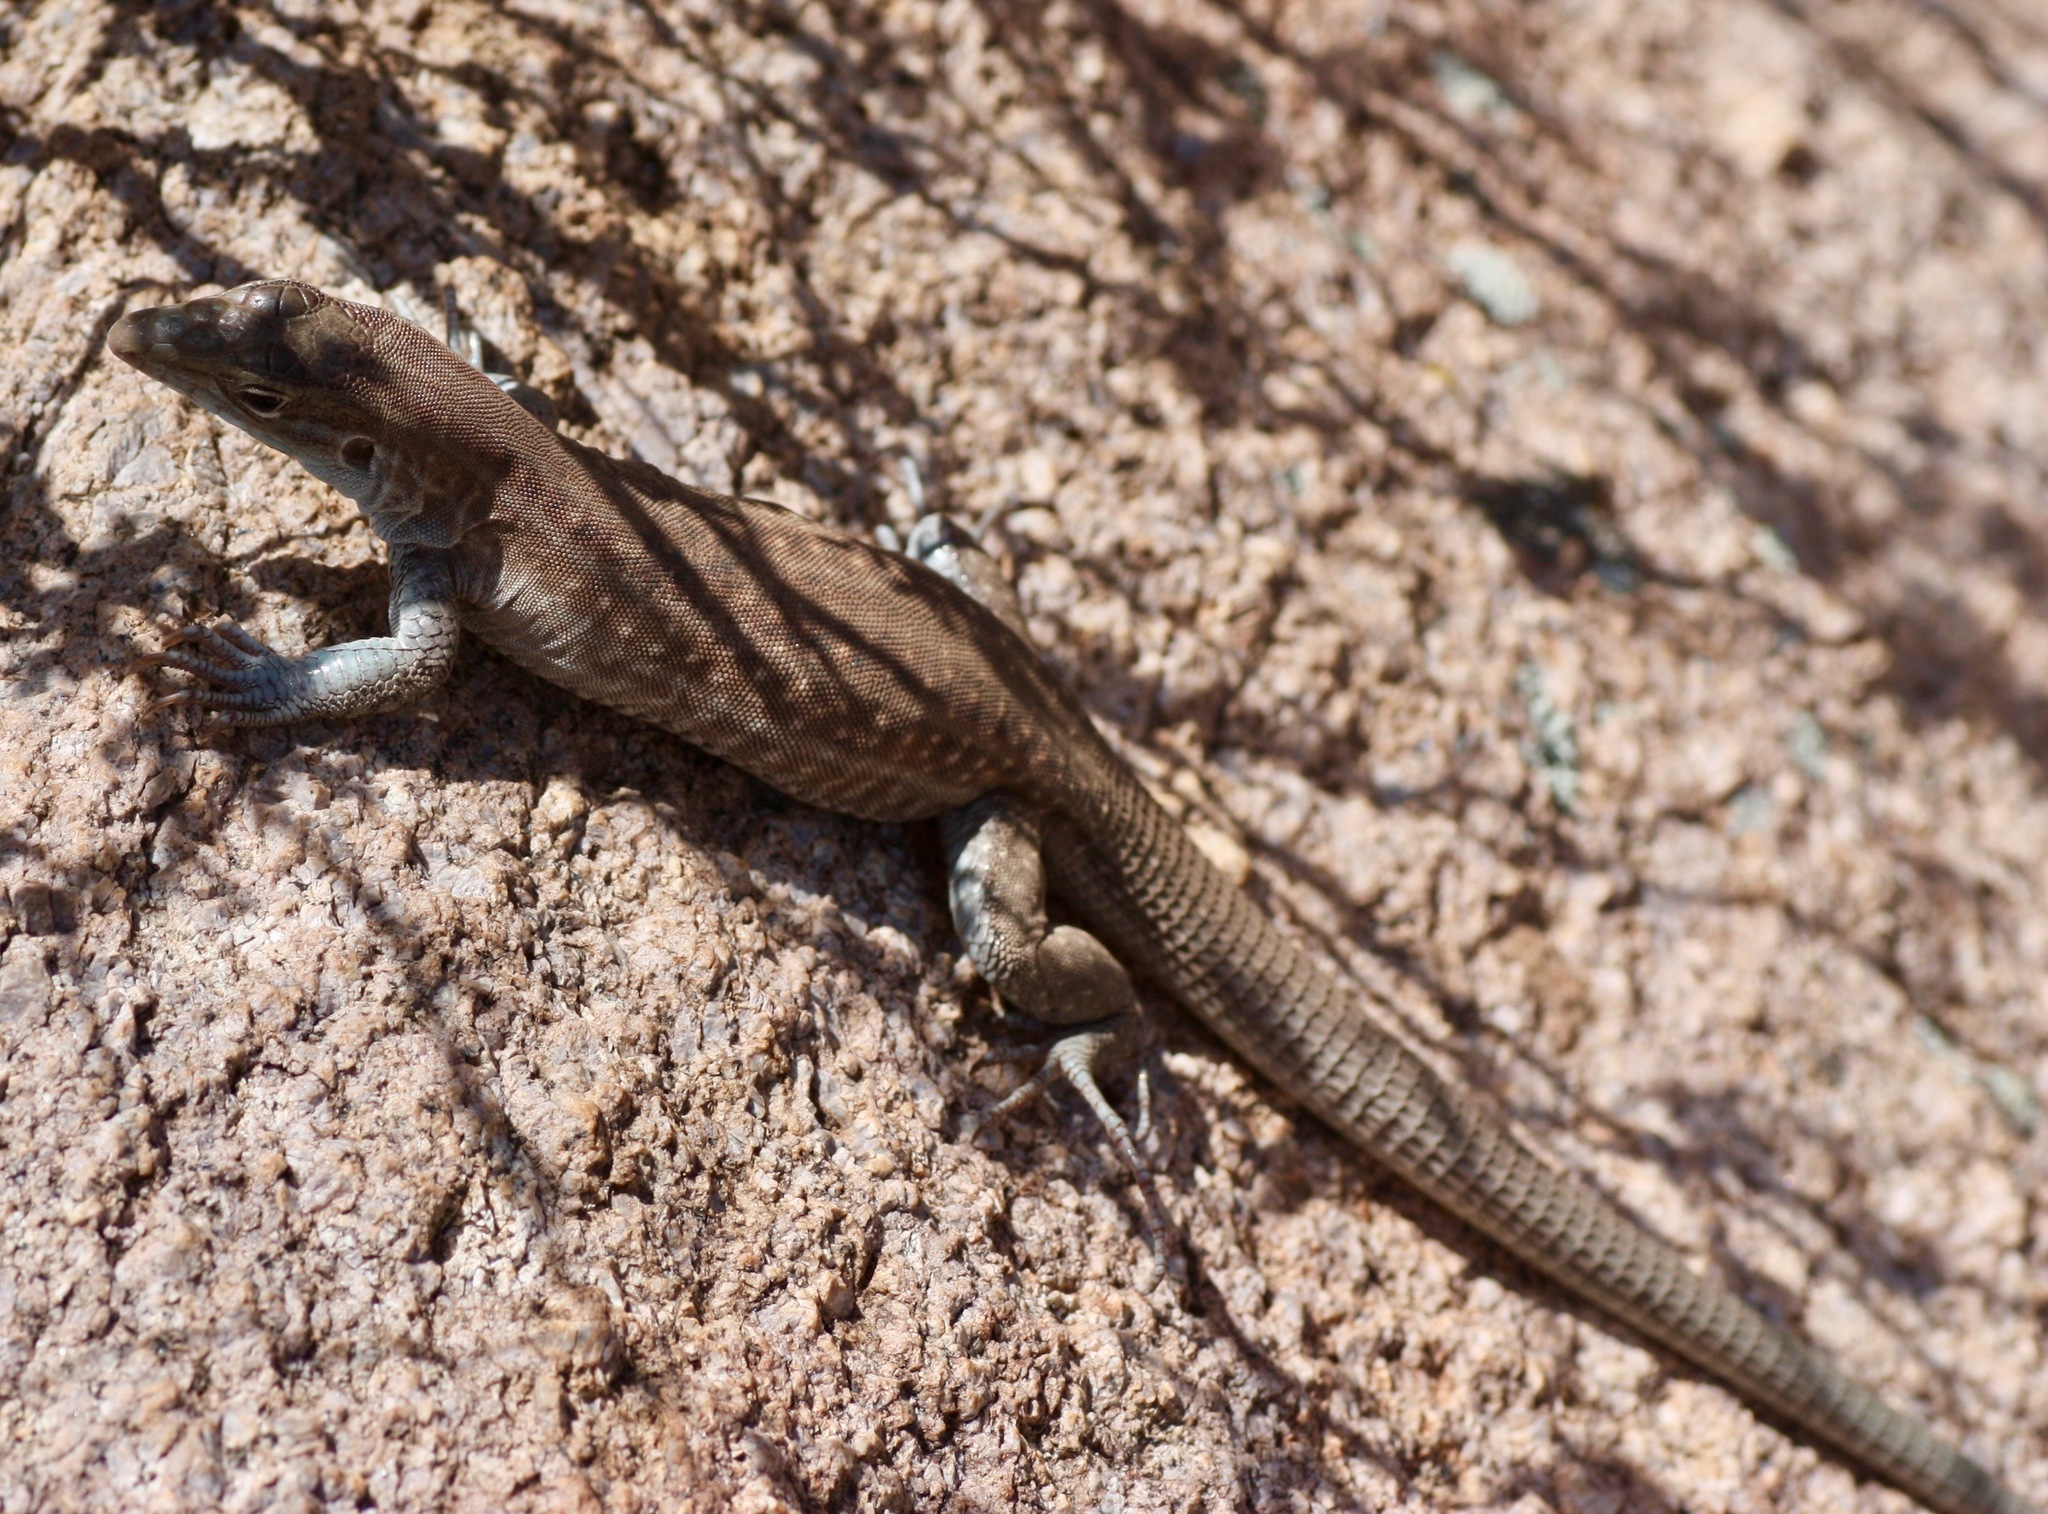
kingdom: Animalia
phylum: Chordata
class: Squamata
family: Teiidae
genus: Aspidoscelis
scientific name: Aspidoscelis exsanguis
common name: Chihuahuan spotted whiptail
